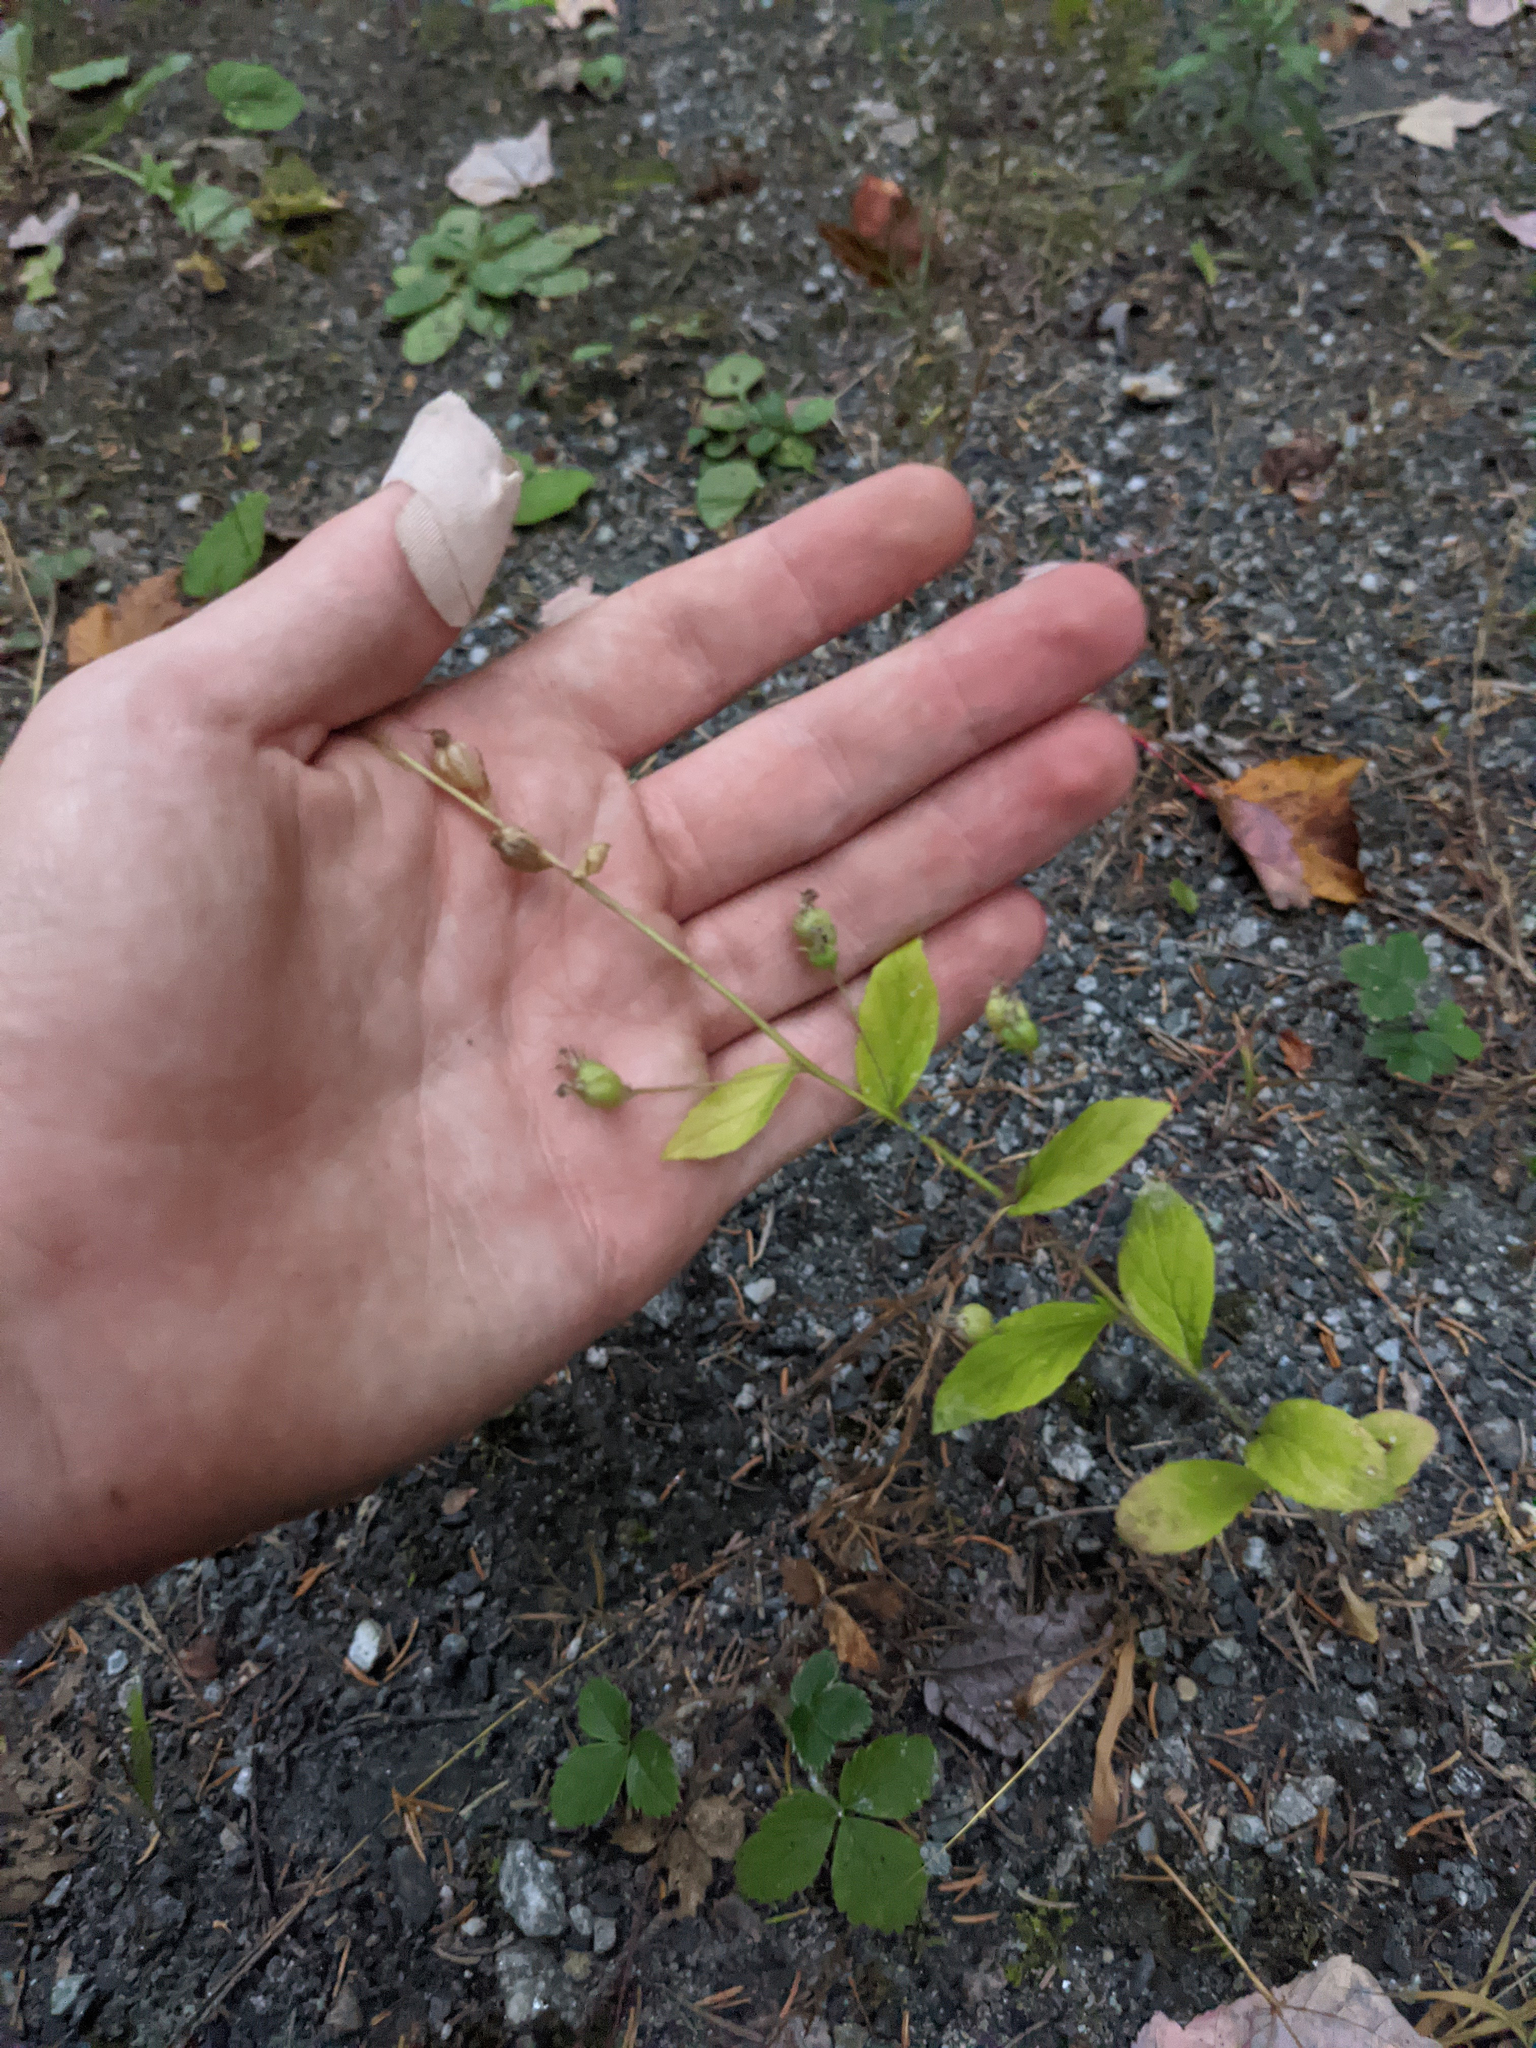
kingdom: Plantae
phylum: Tracheophyta
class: Magnoliopsida
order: Asterales
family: Campanulaceae
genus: Lobelia
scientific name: Lobelia inflata
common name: Indian tobacco
